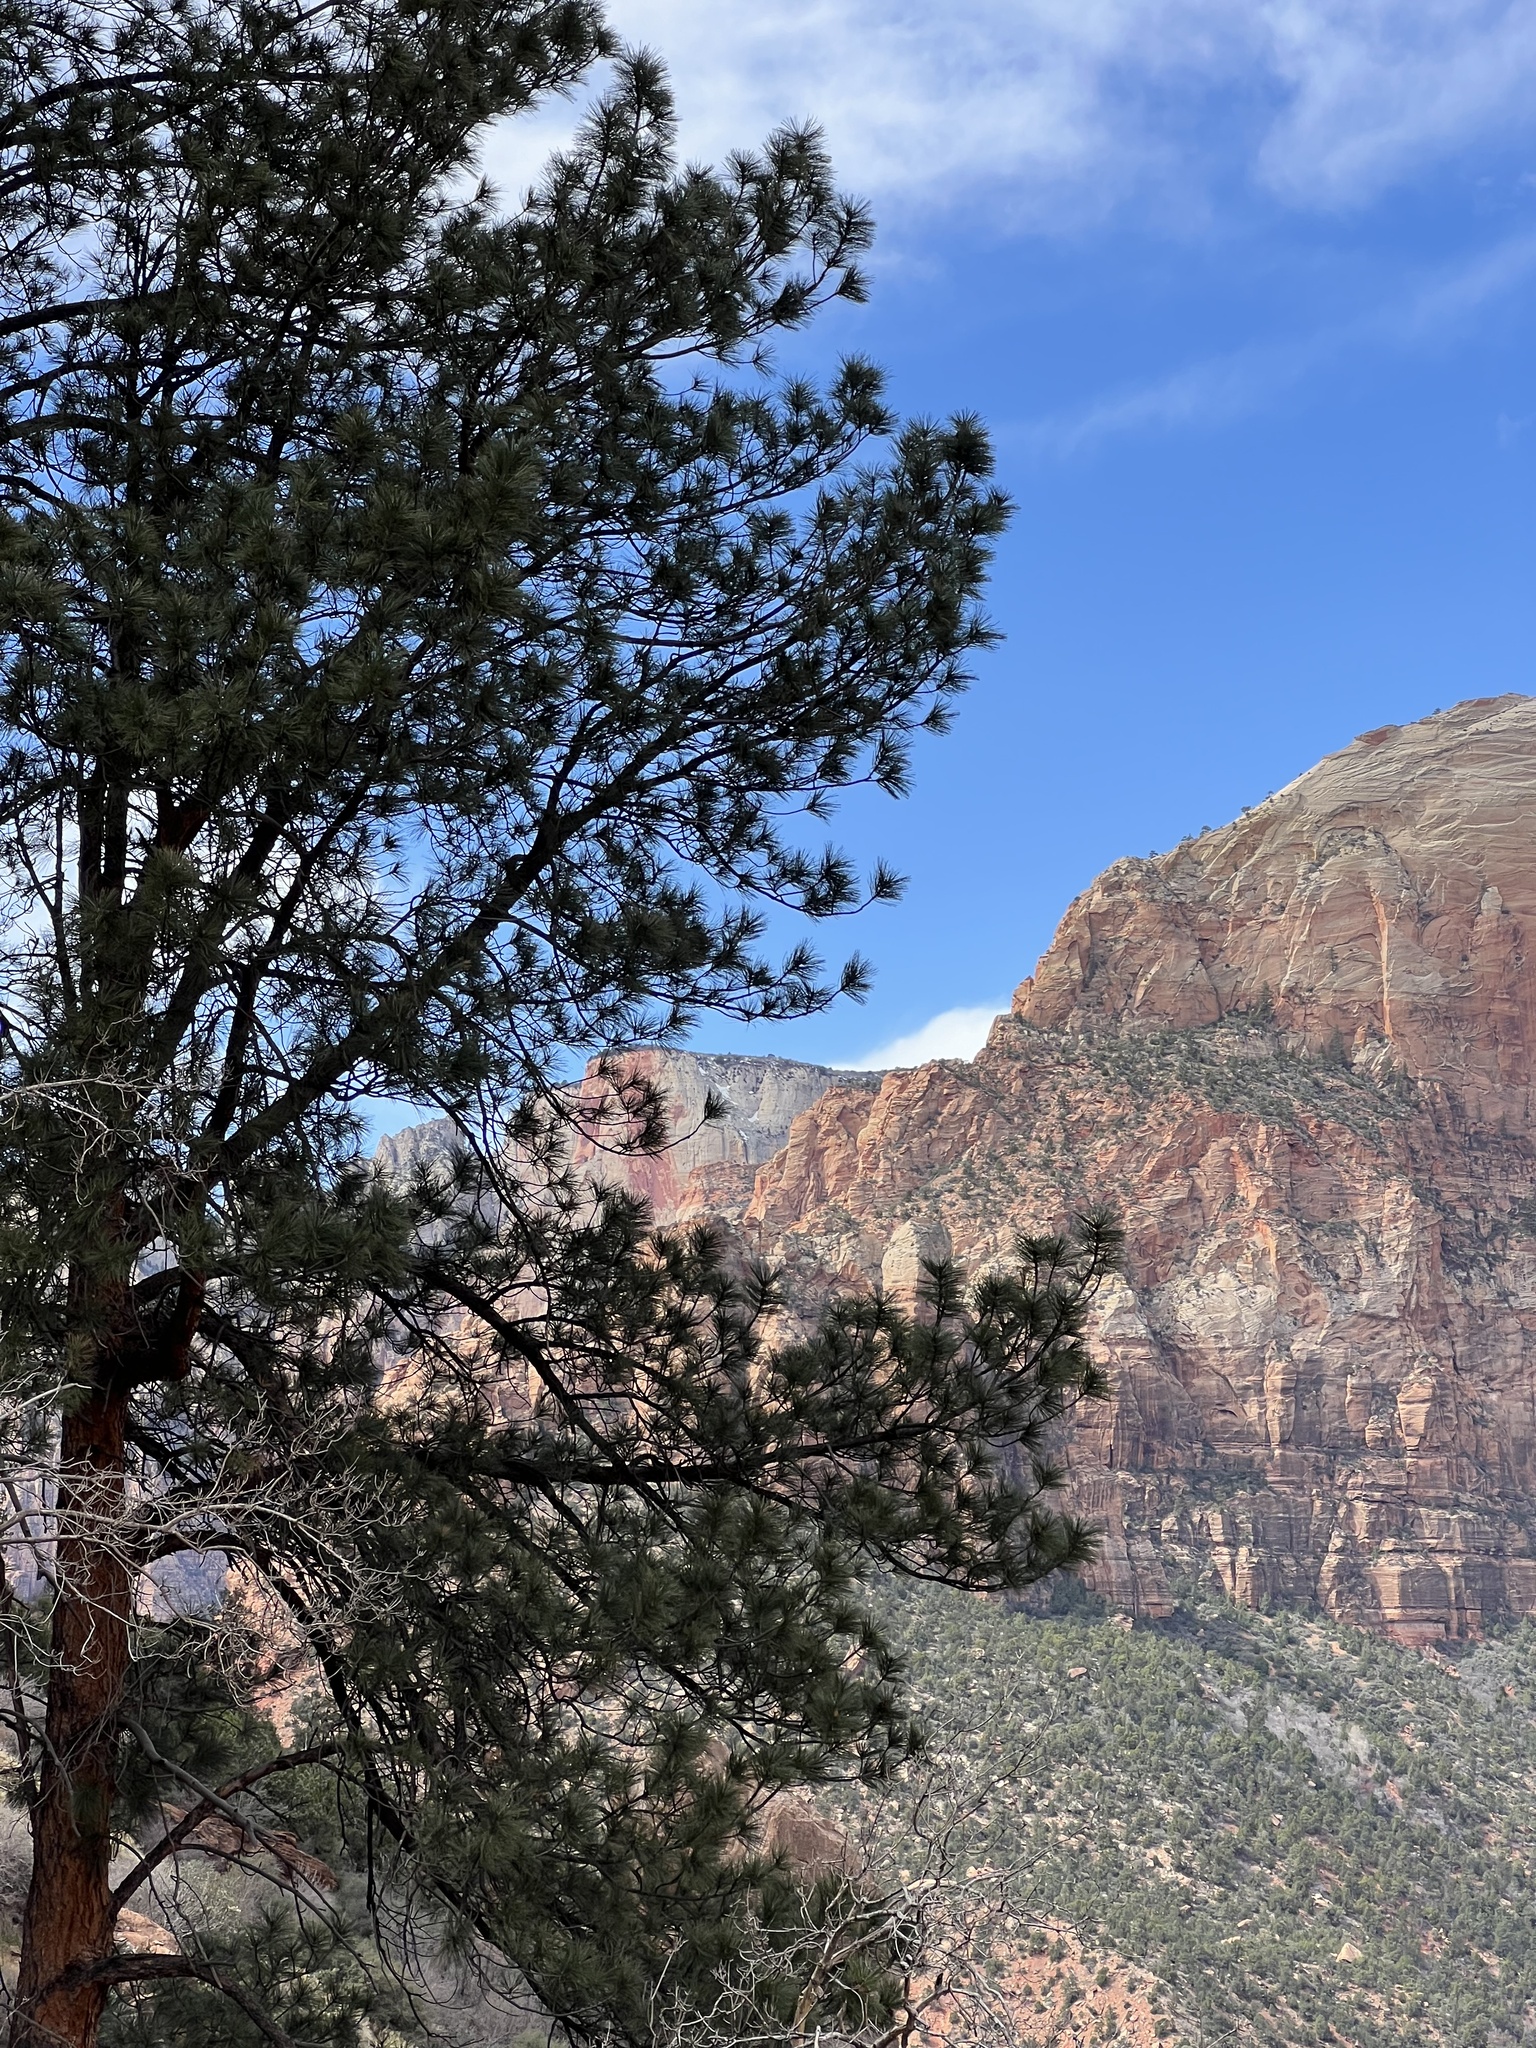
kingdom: Plantae
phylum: Tracheophyta
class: Pinopsida
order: Pinales
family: Pinaceae
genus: Pinus
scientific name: Pinus ponderosa
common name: Western yellow-pine
